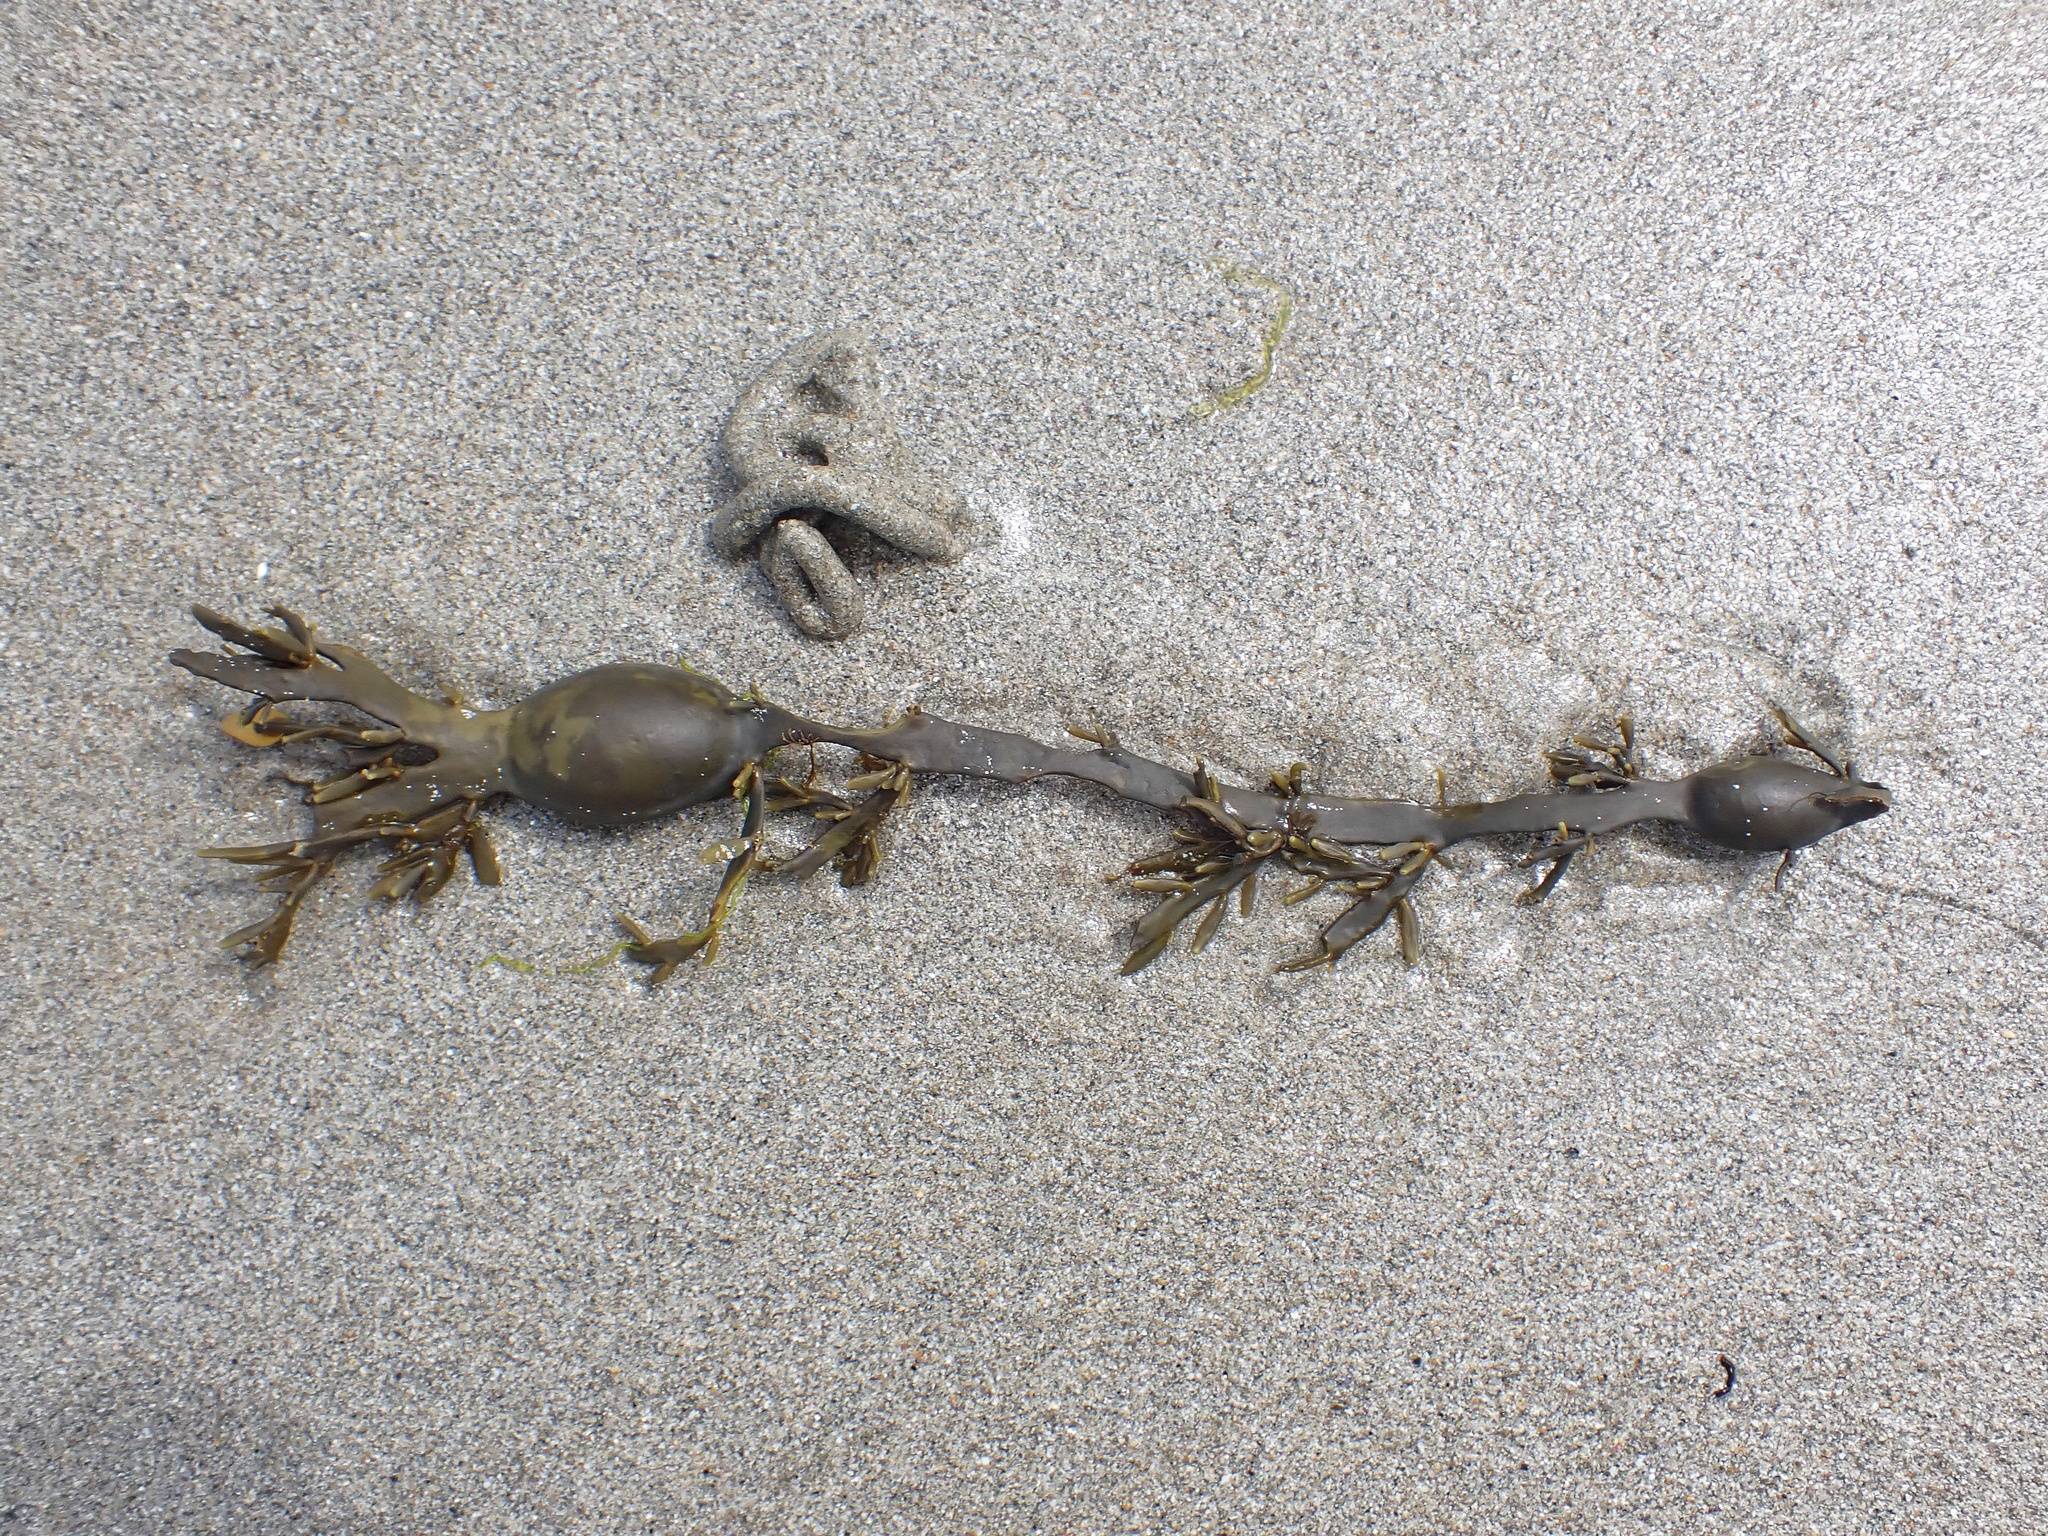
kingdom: Chromista
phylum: Ochrophyta
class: Phaeophyceae
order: Fucales
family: Fucaceae
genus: Ascophyllum
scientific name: Ascophyllum nodosum
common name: Knotted wrack
